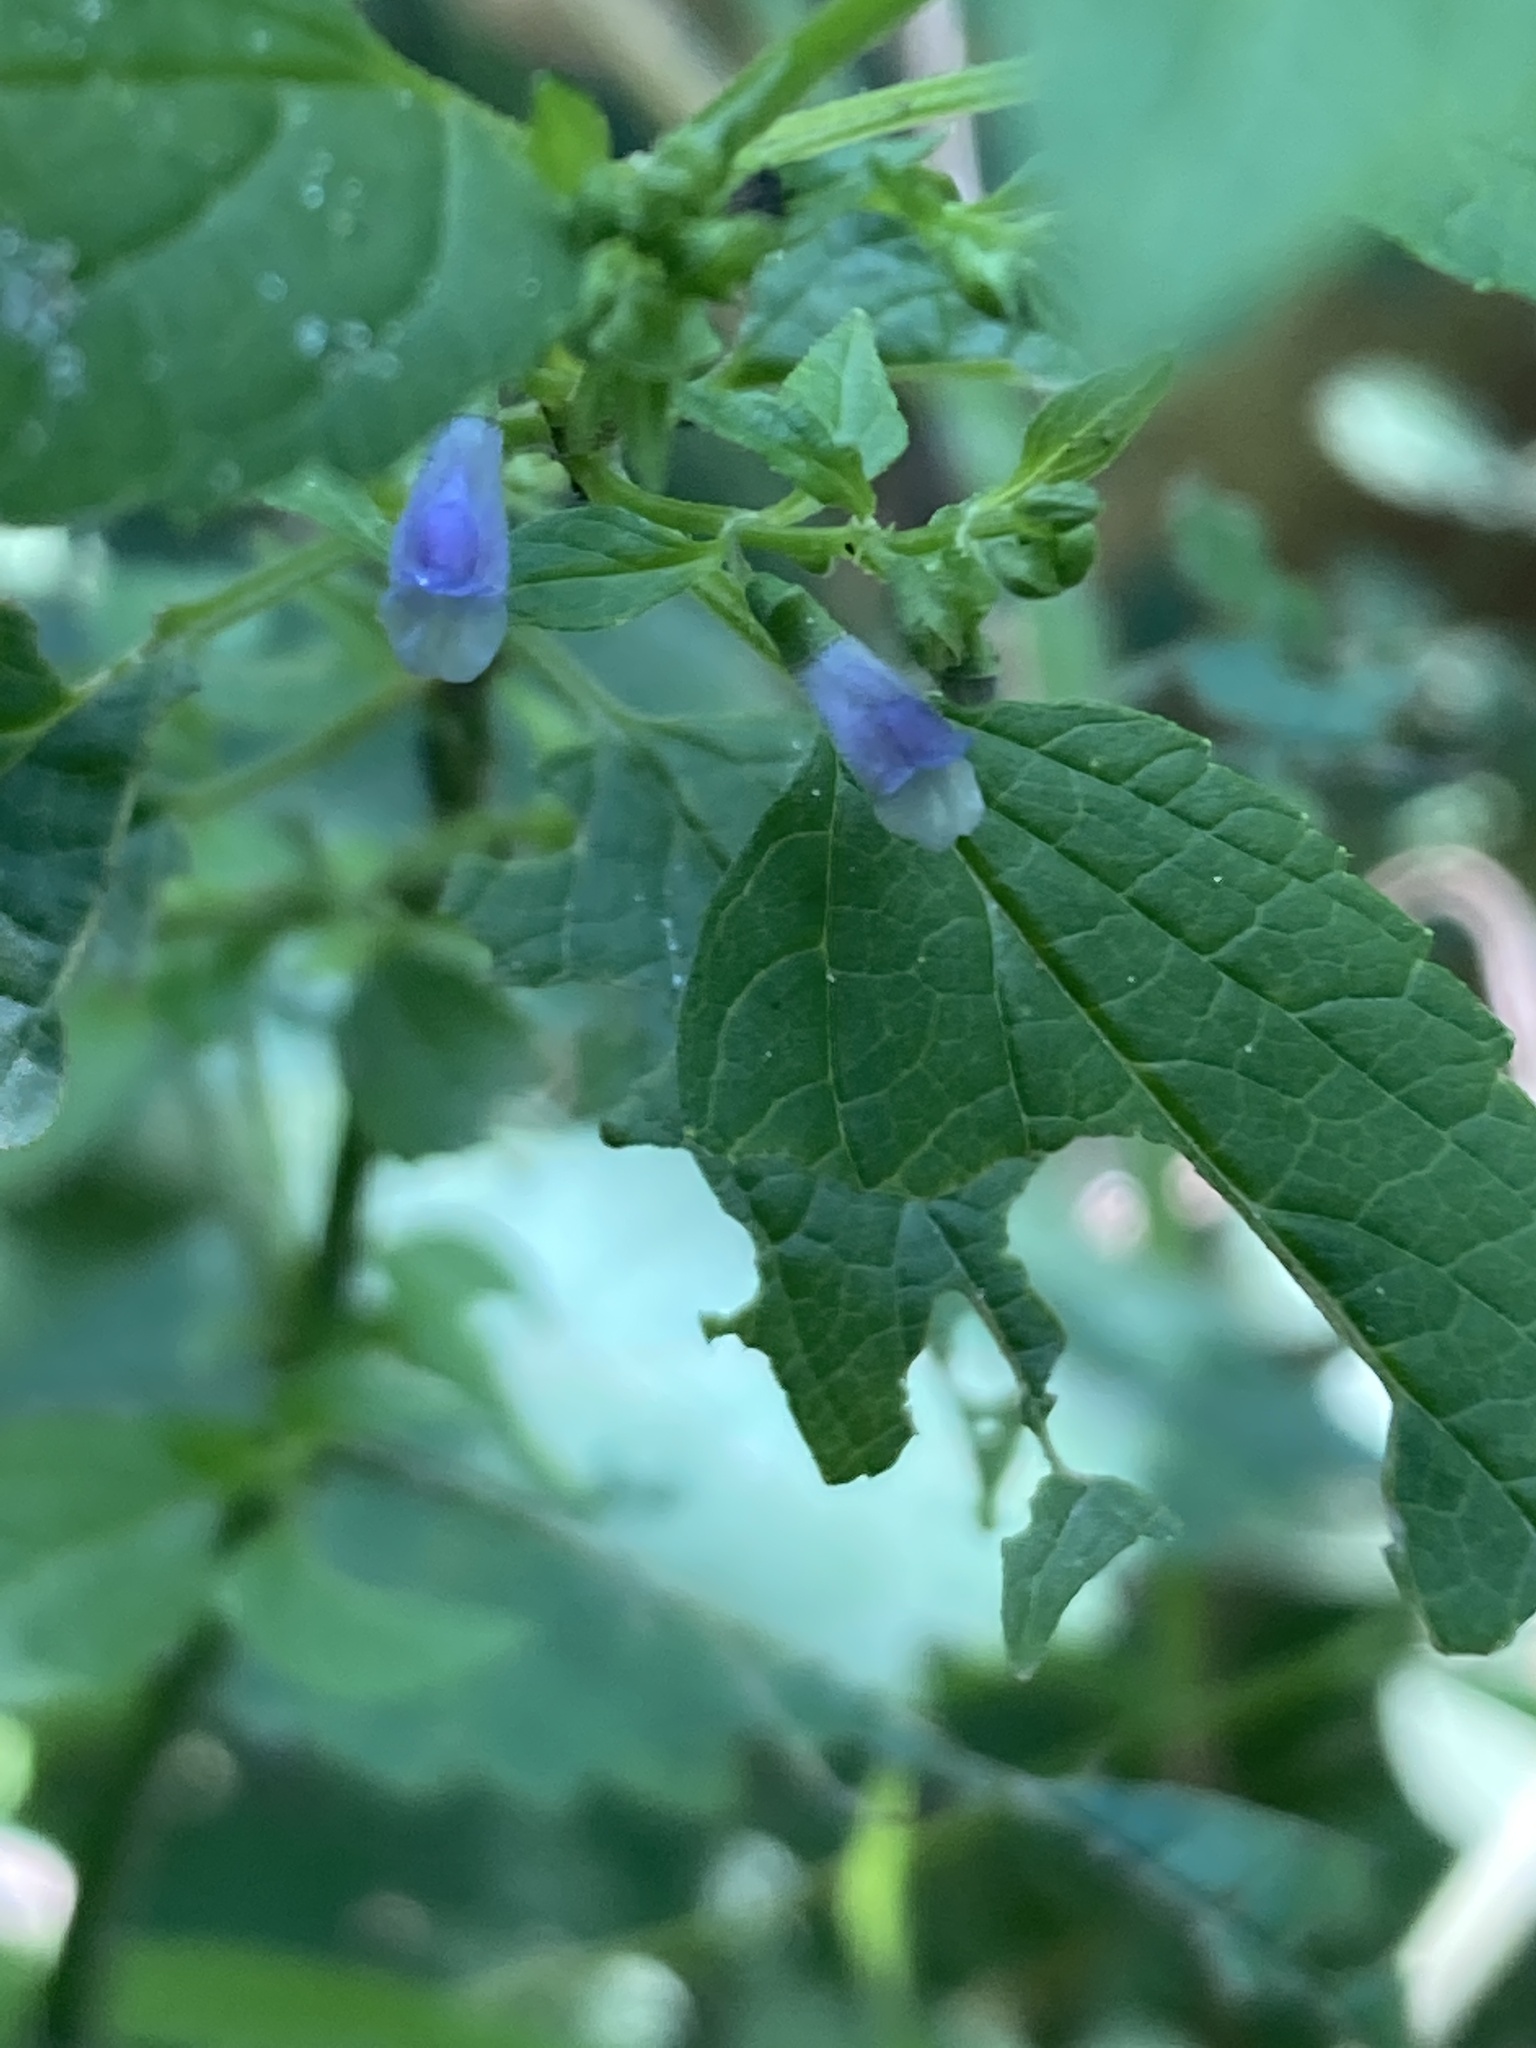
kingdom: Plantae
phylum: Tracheophyta
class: Magnoliopsida
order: Lamiales
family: Lamiaceae
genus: Scutellaria
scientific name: Scutellaria lateriflora
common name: Blue skullcap
